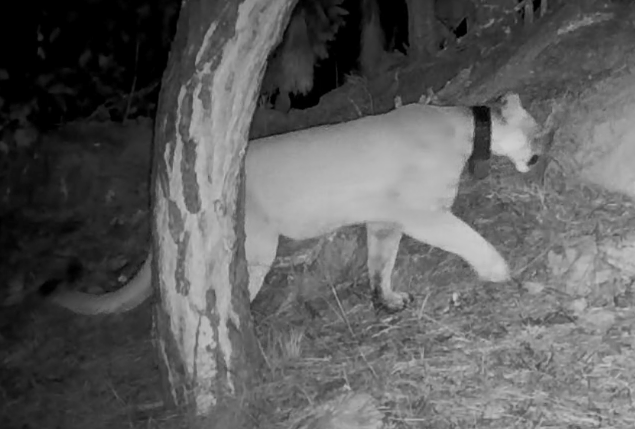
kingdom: Animalia
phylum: Chordata
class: Mammalia
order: Carnivora
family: Felidae
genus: Puma
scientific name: Puma concolor
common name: Puma
